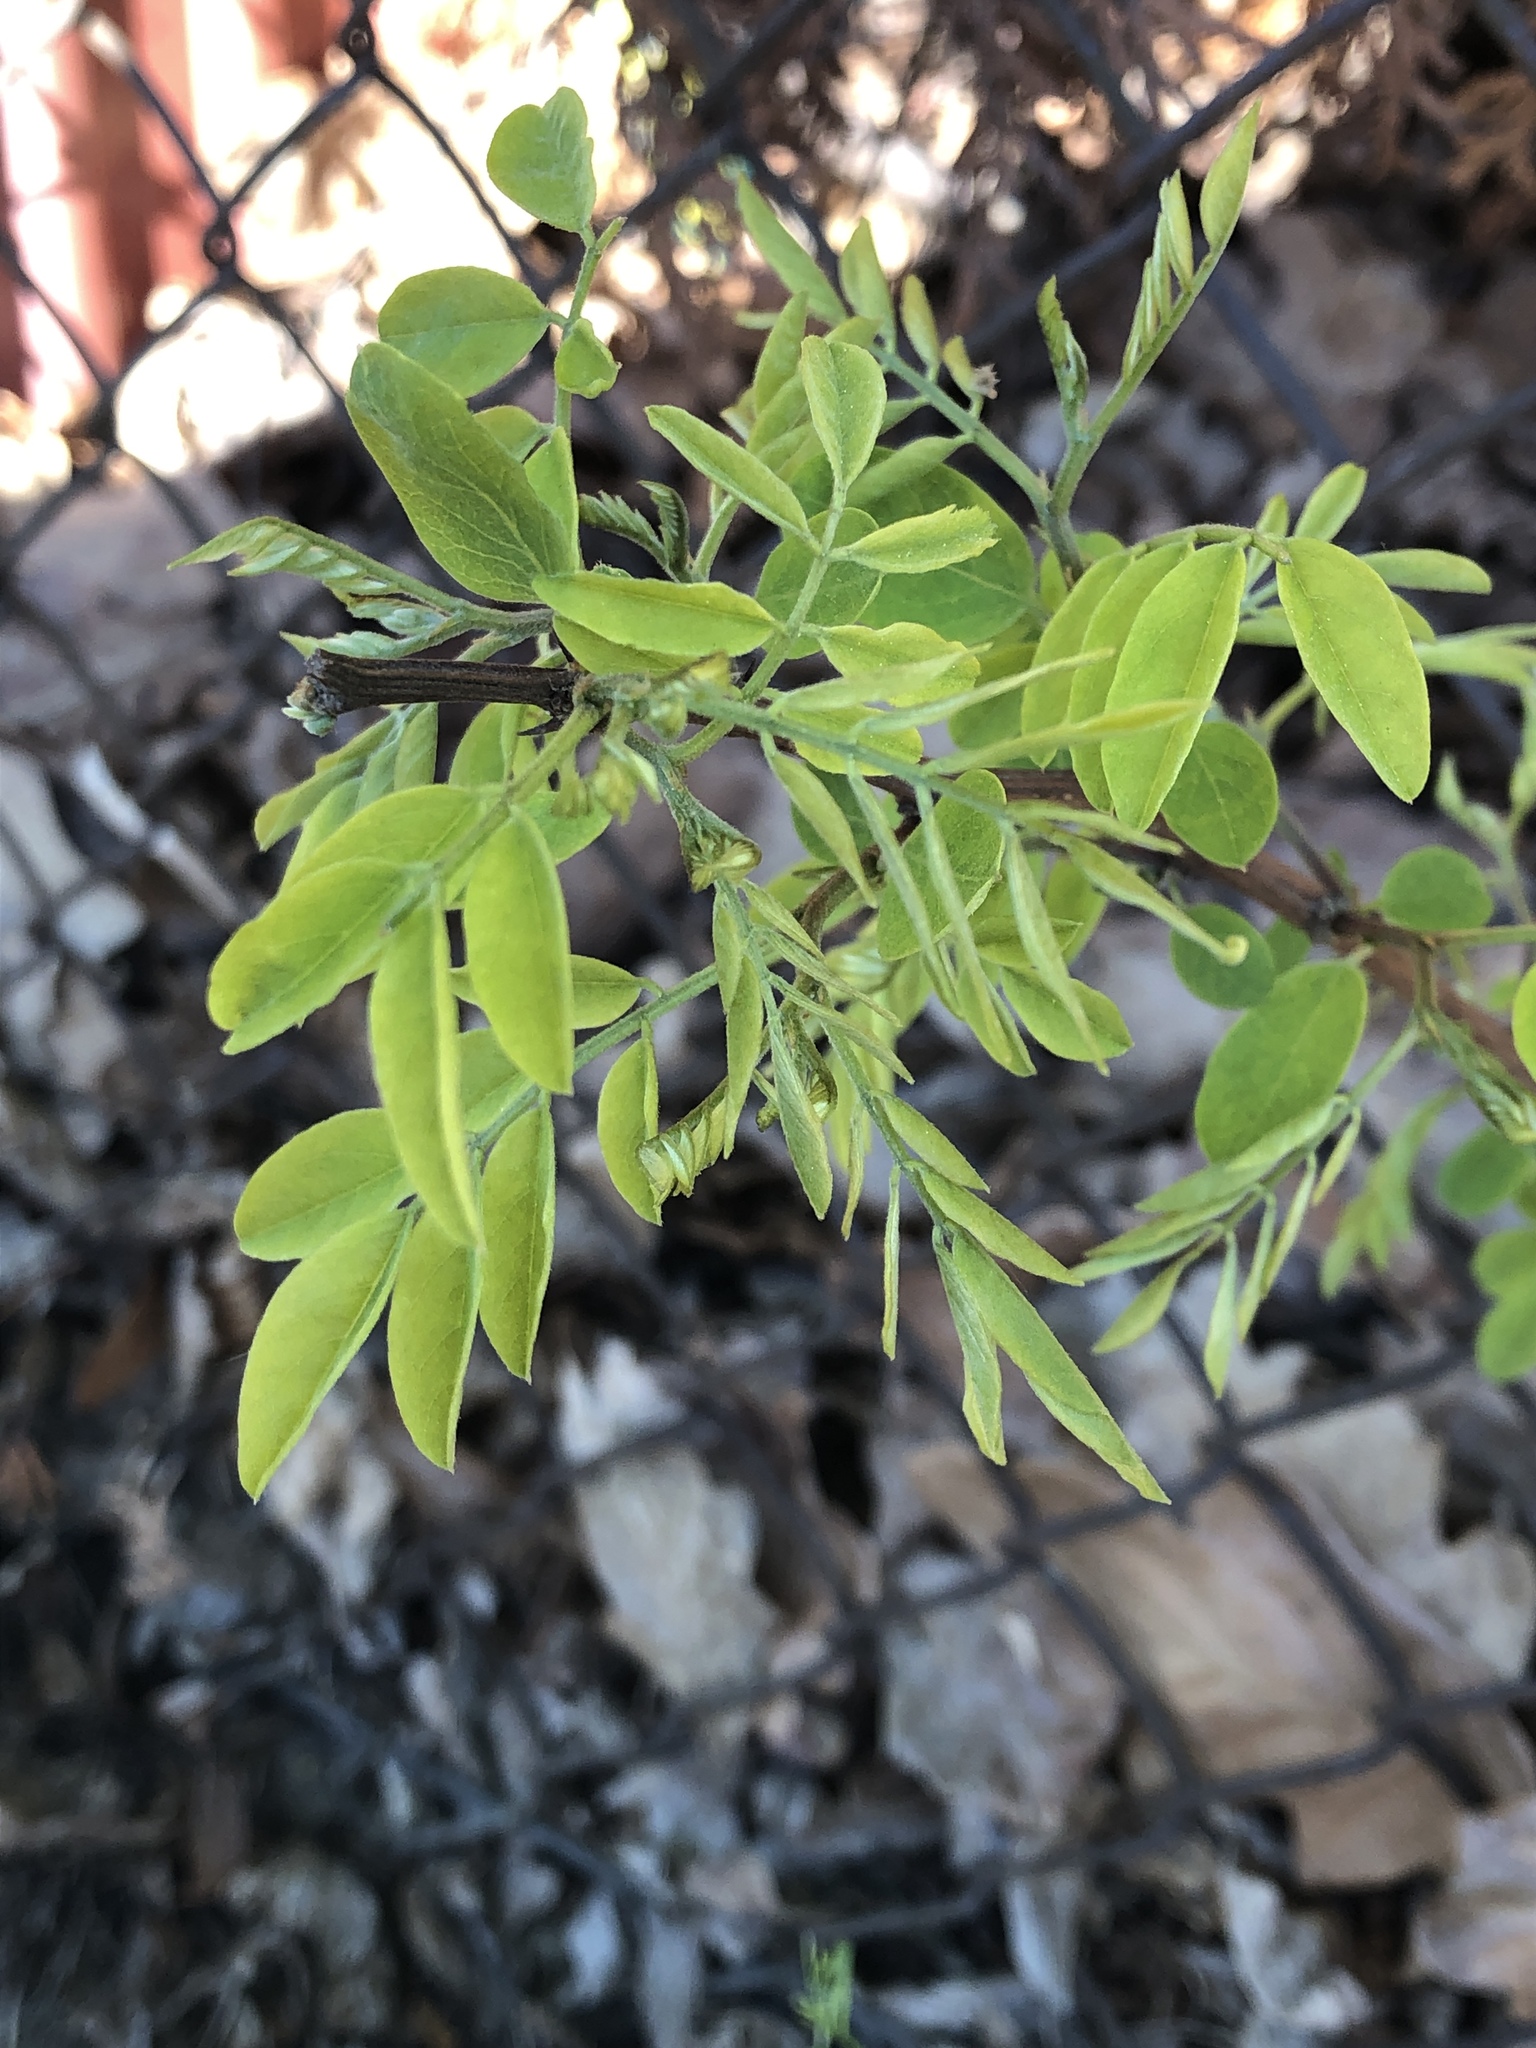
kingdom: Plantae
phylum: Tracheophyta
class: Magnoliopsida
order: Fabales
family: Fabaceae
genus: Robinia
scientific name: Robinia pseudoacacia
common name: Black locust
